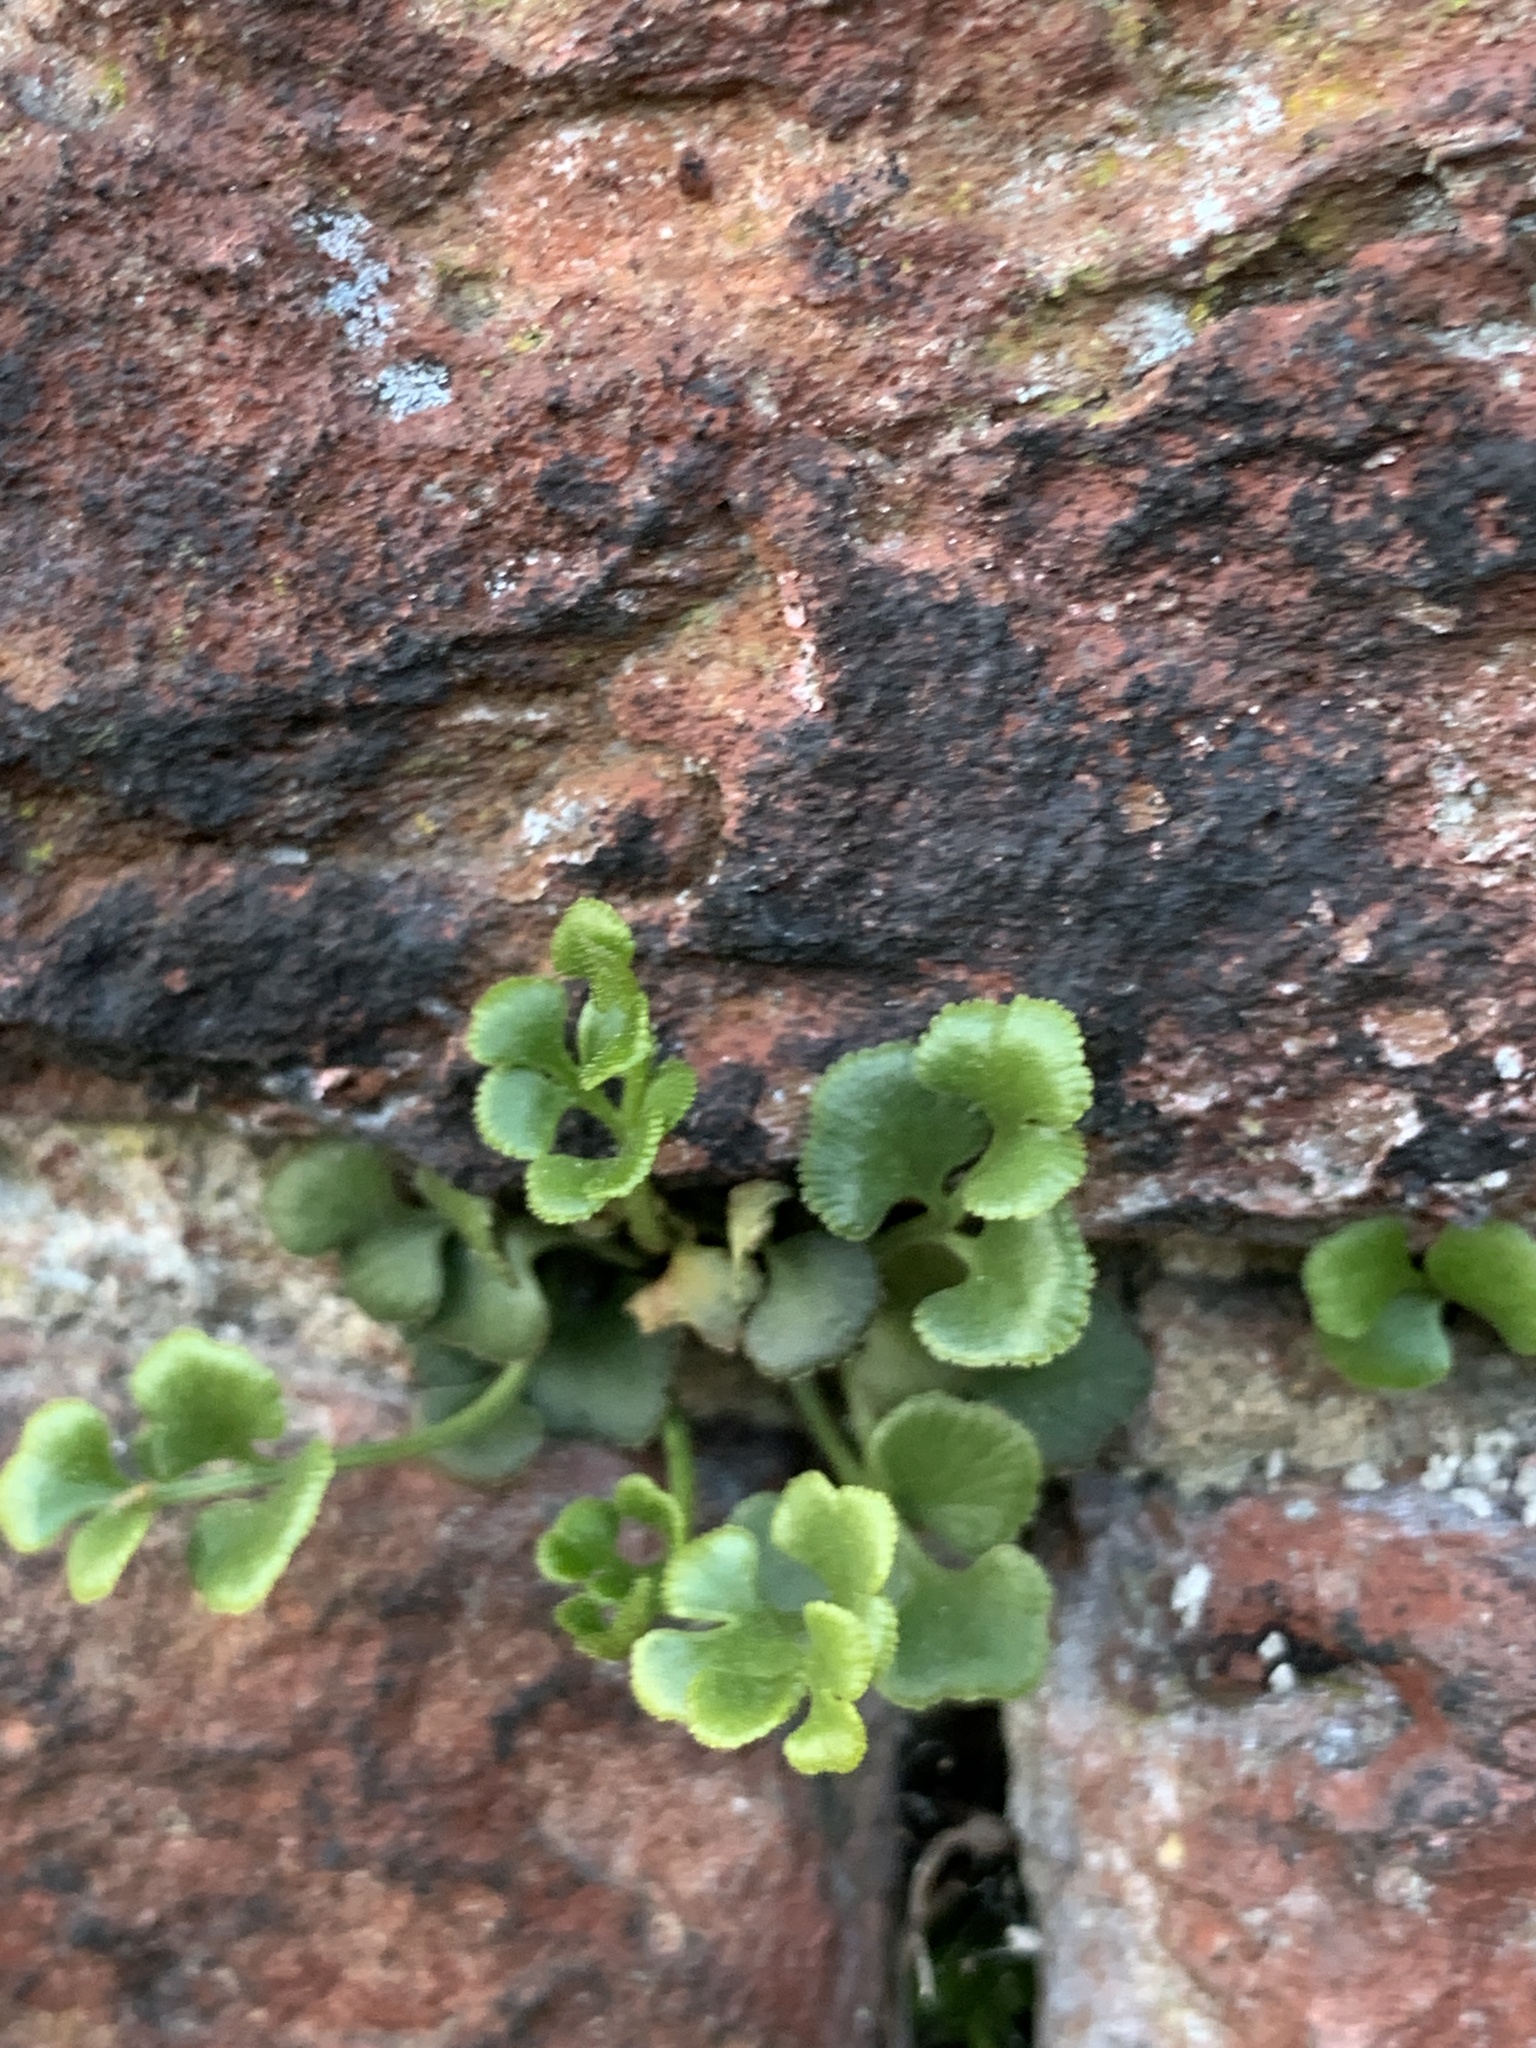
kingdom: Plantae
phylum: Tracheophyta
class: Polypodiopsida
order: Polypodiales
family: Aspleniaceae
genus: Asplenium
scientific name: Asplenium ruta-muraria
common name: Wall-rue
